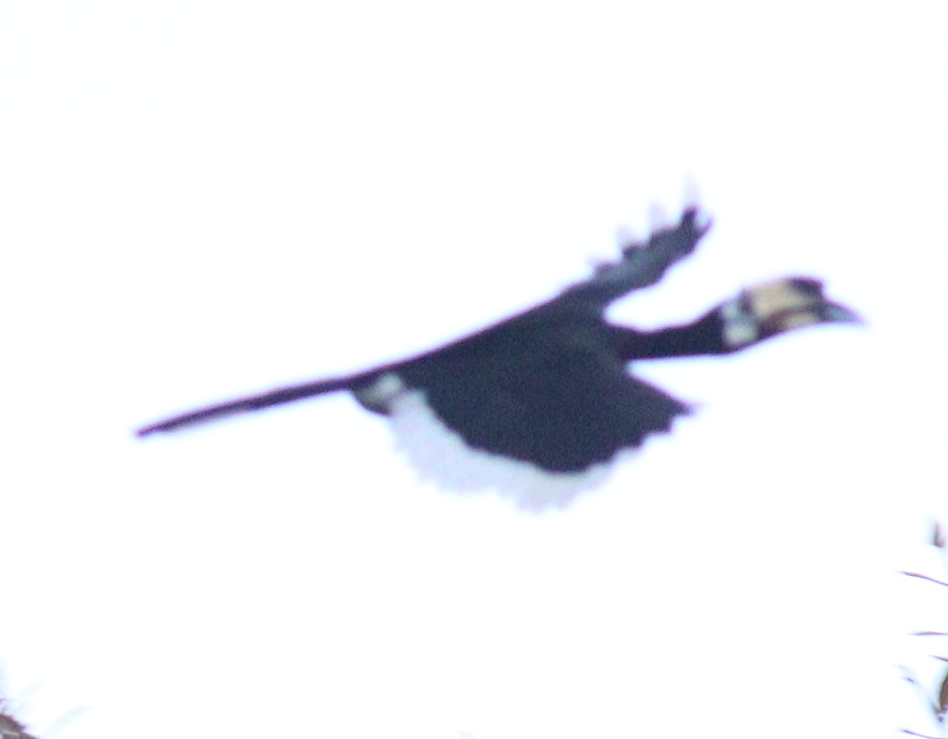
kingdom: Animalia
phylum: Chordata
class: Aves
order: Bucerotiformes
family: Bucerotidae
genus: Anthracoceros
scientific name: Anthracoceros albirostris
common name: Oriental pied-hornbill
